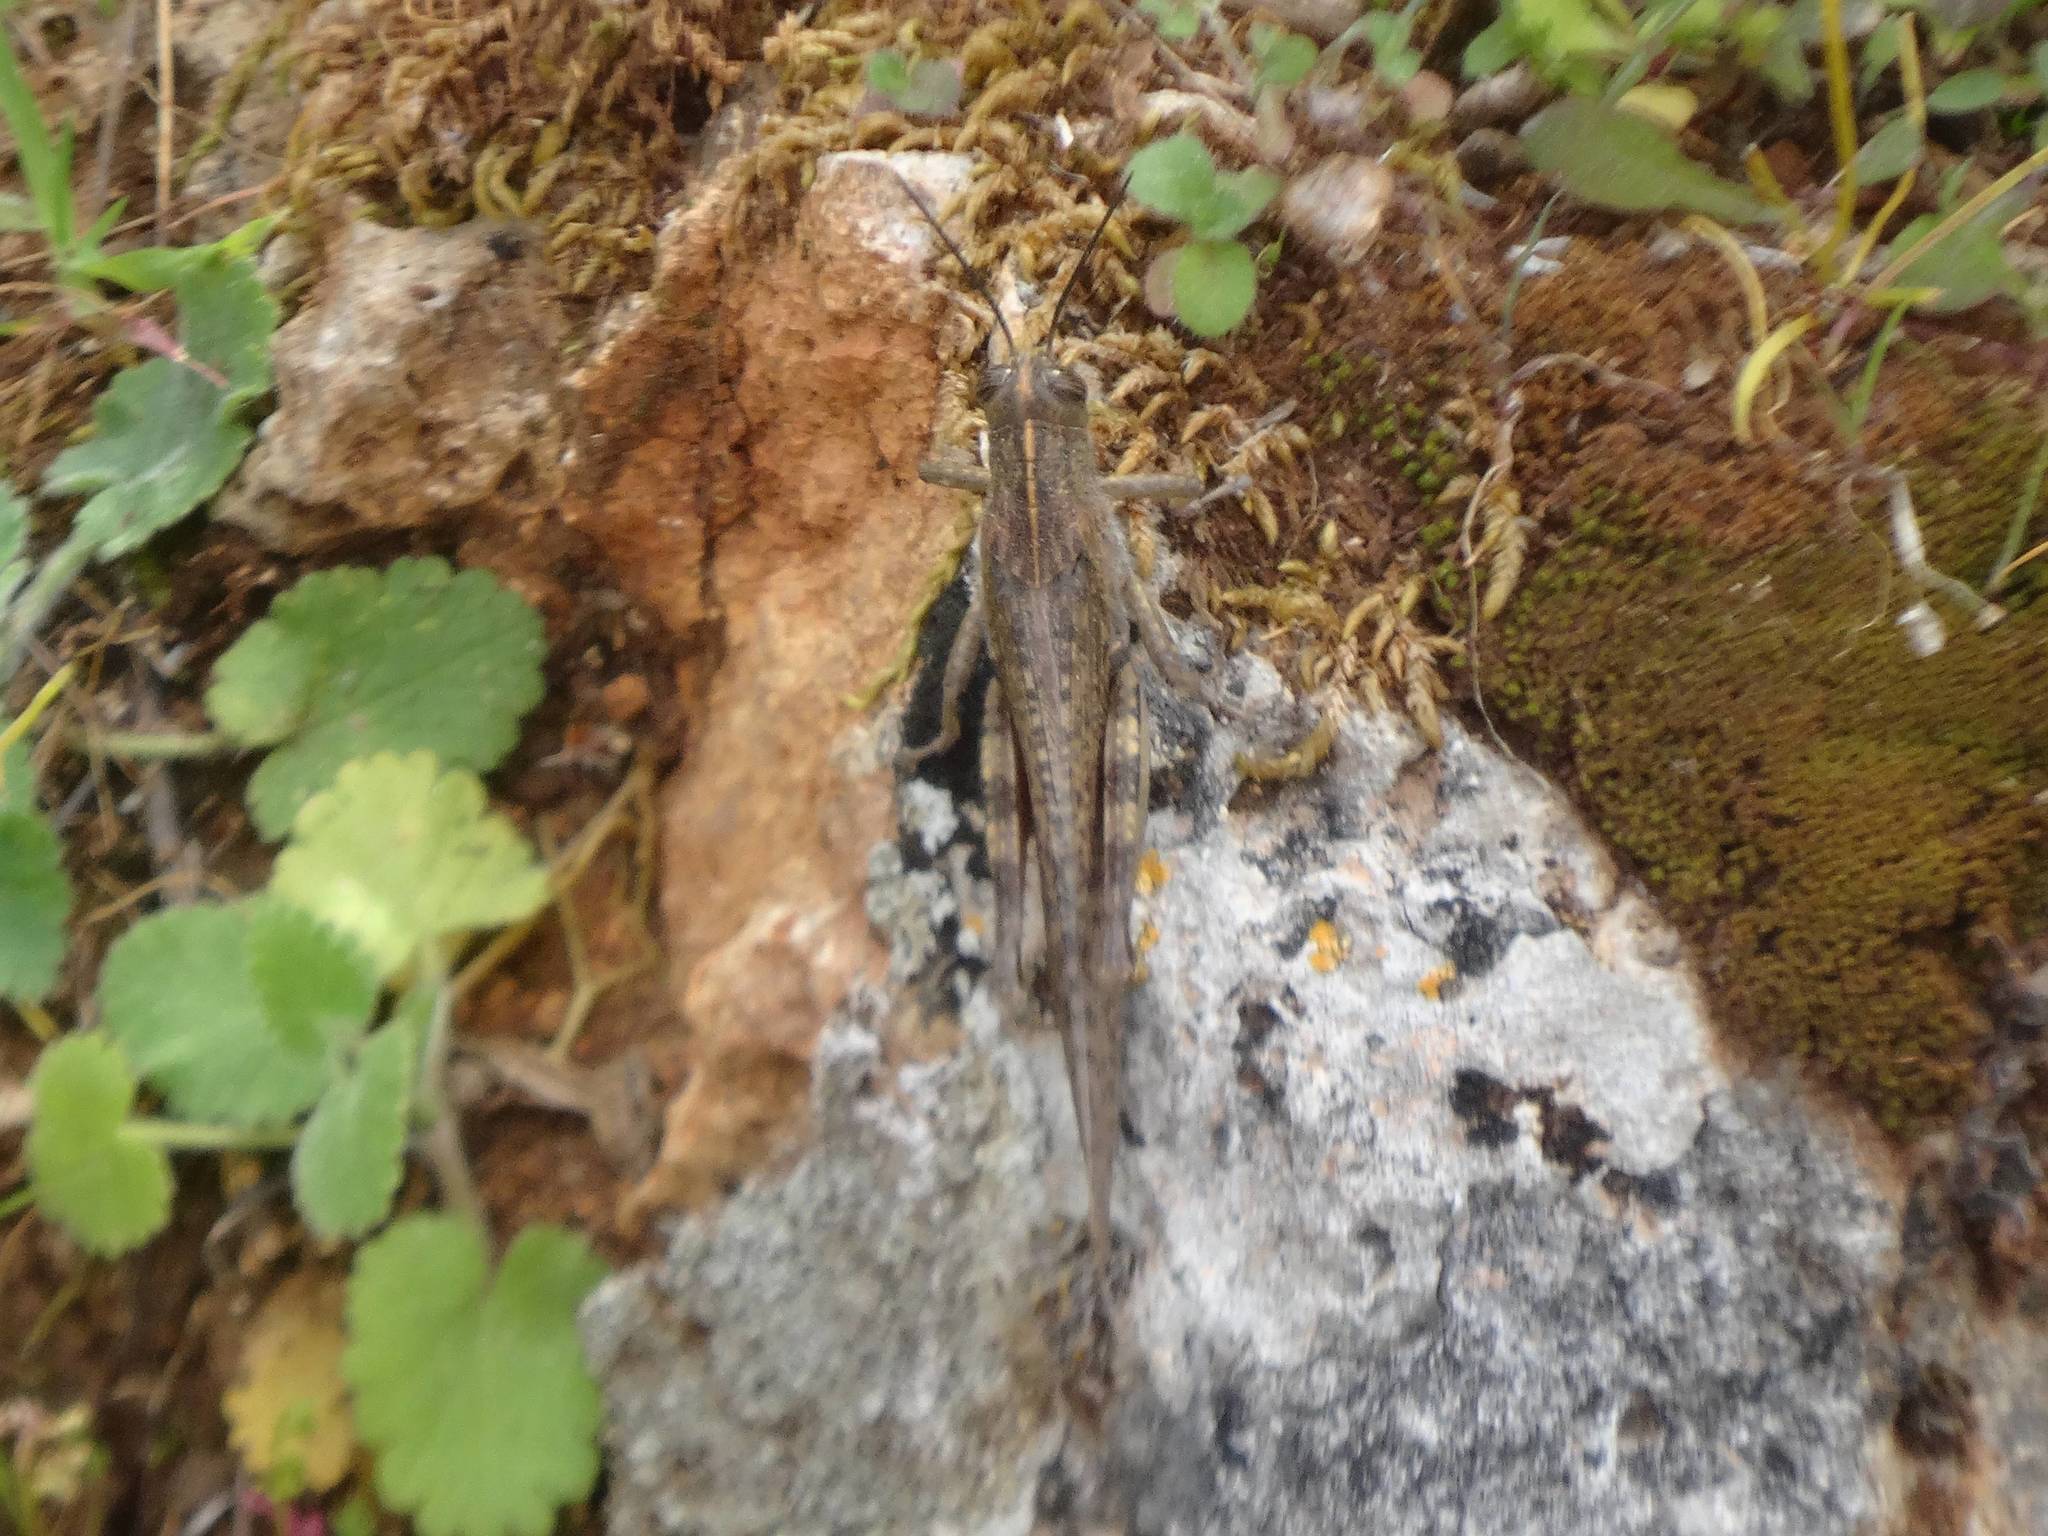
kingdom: Animalia
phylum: Arthropoda
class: Insecta
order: Orthoptera
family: Acrididae
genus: Anacridium
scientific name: Anacridium aegyptium
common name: Egyptian grasshopper
